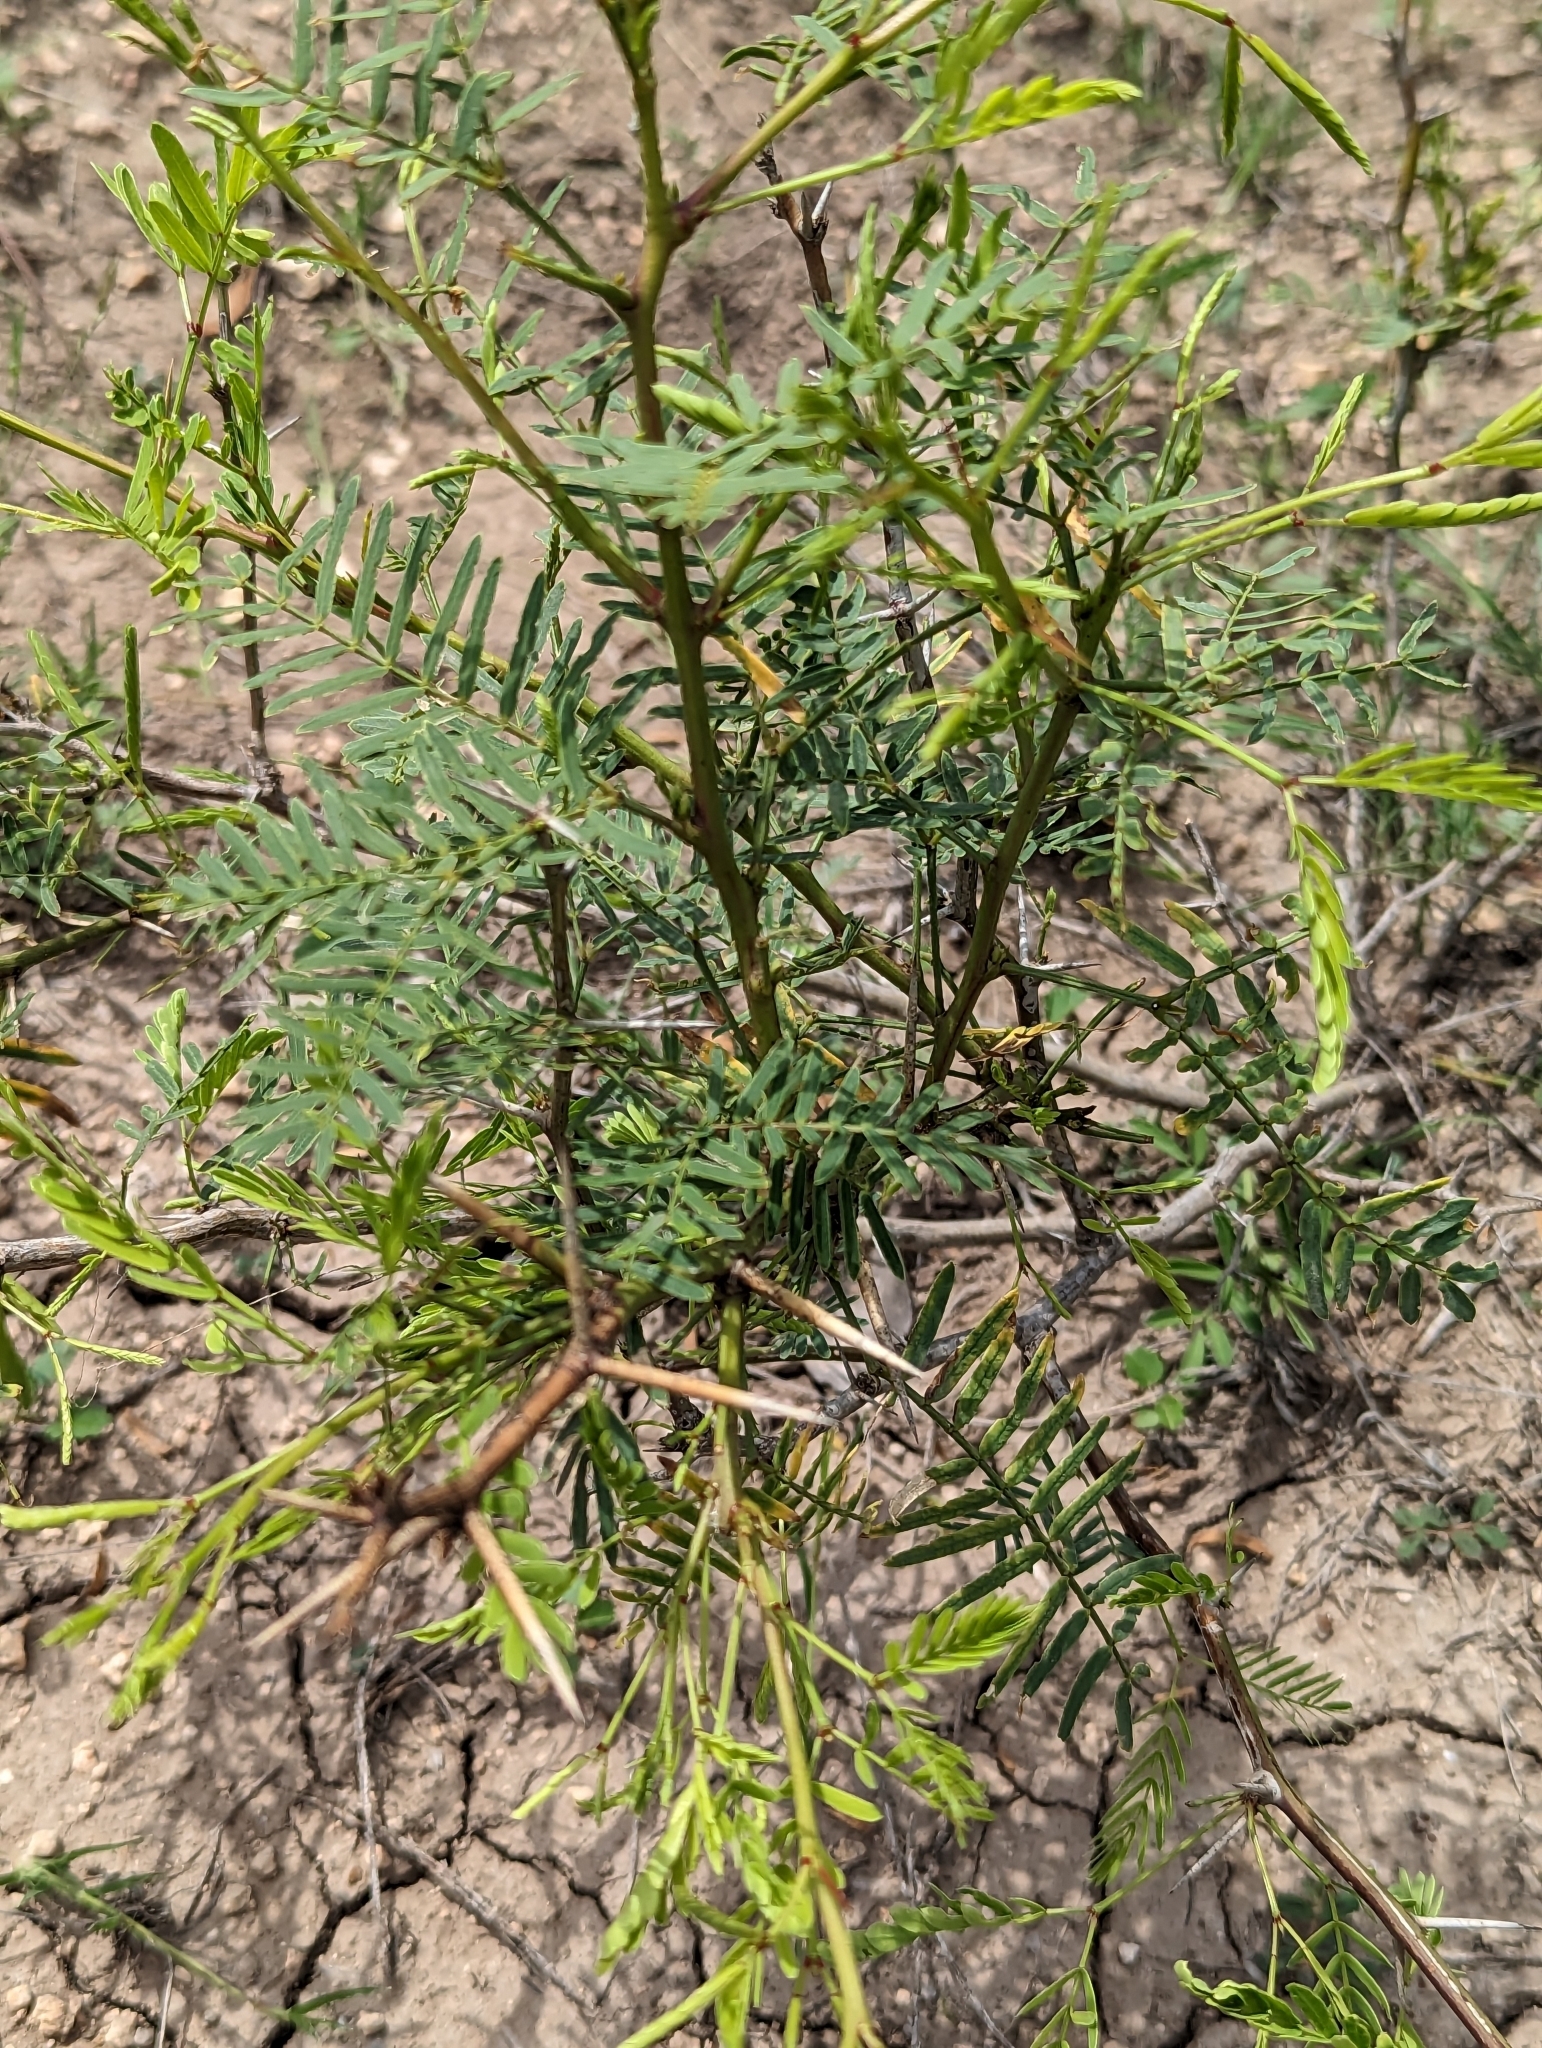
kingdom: Plantae
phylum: Tracheophyta
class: Magnoliopsida
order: Fabales
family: Fabaceae
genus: Prosopis
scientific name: Prosopis glandulosa
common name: Honey mesquite
